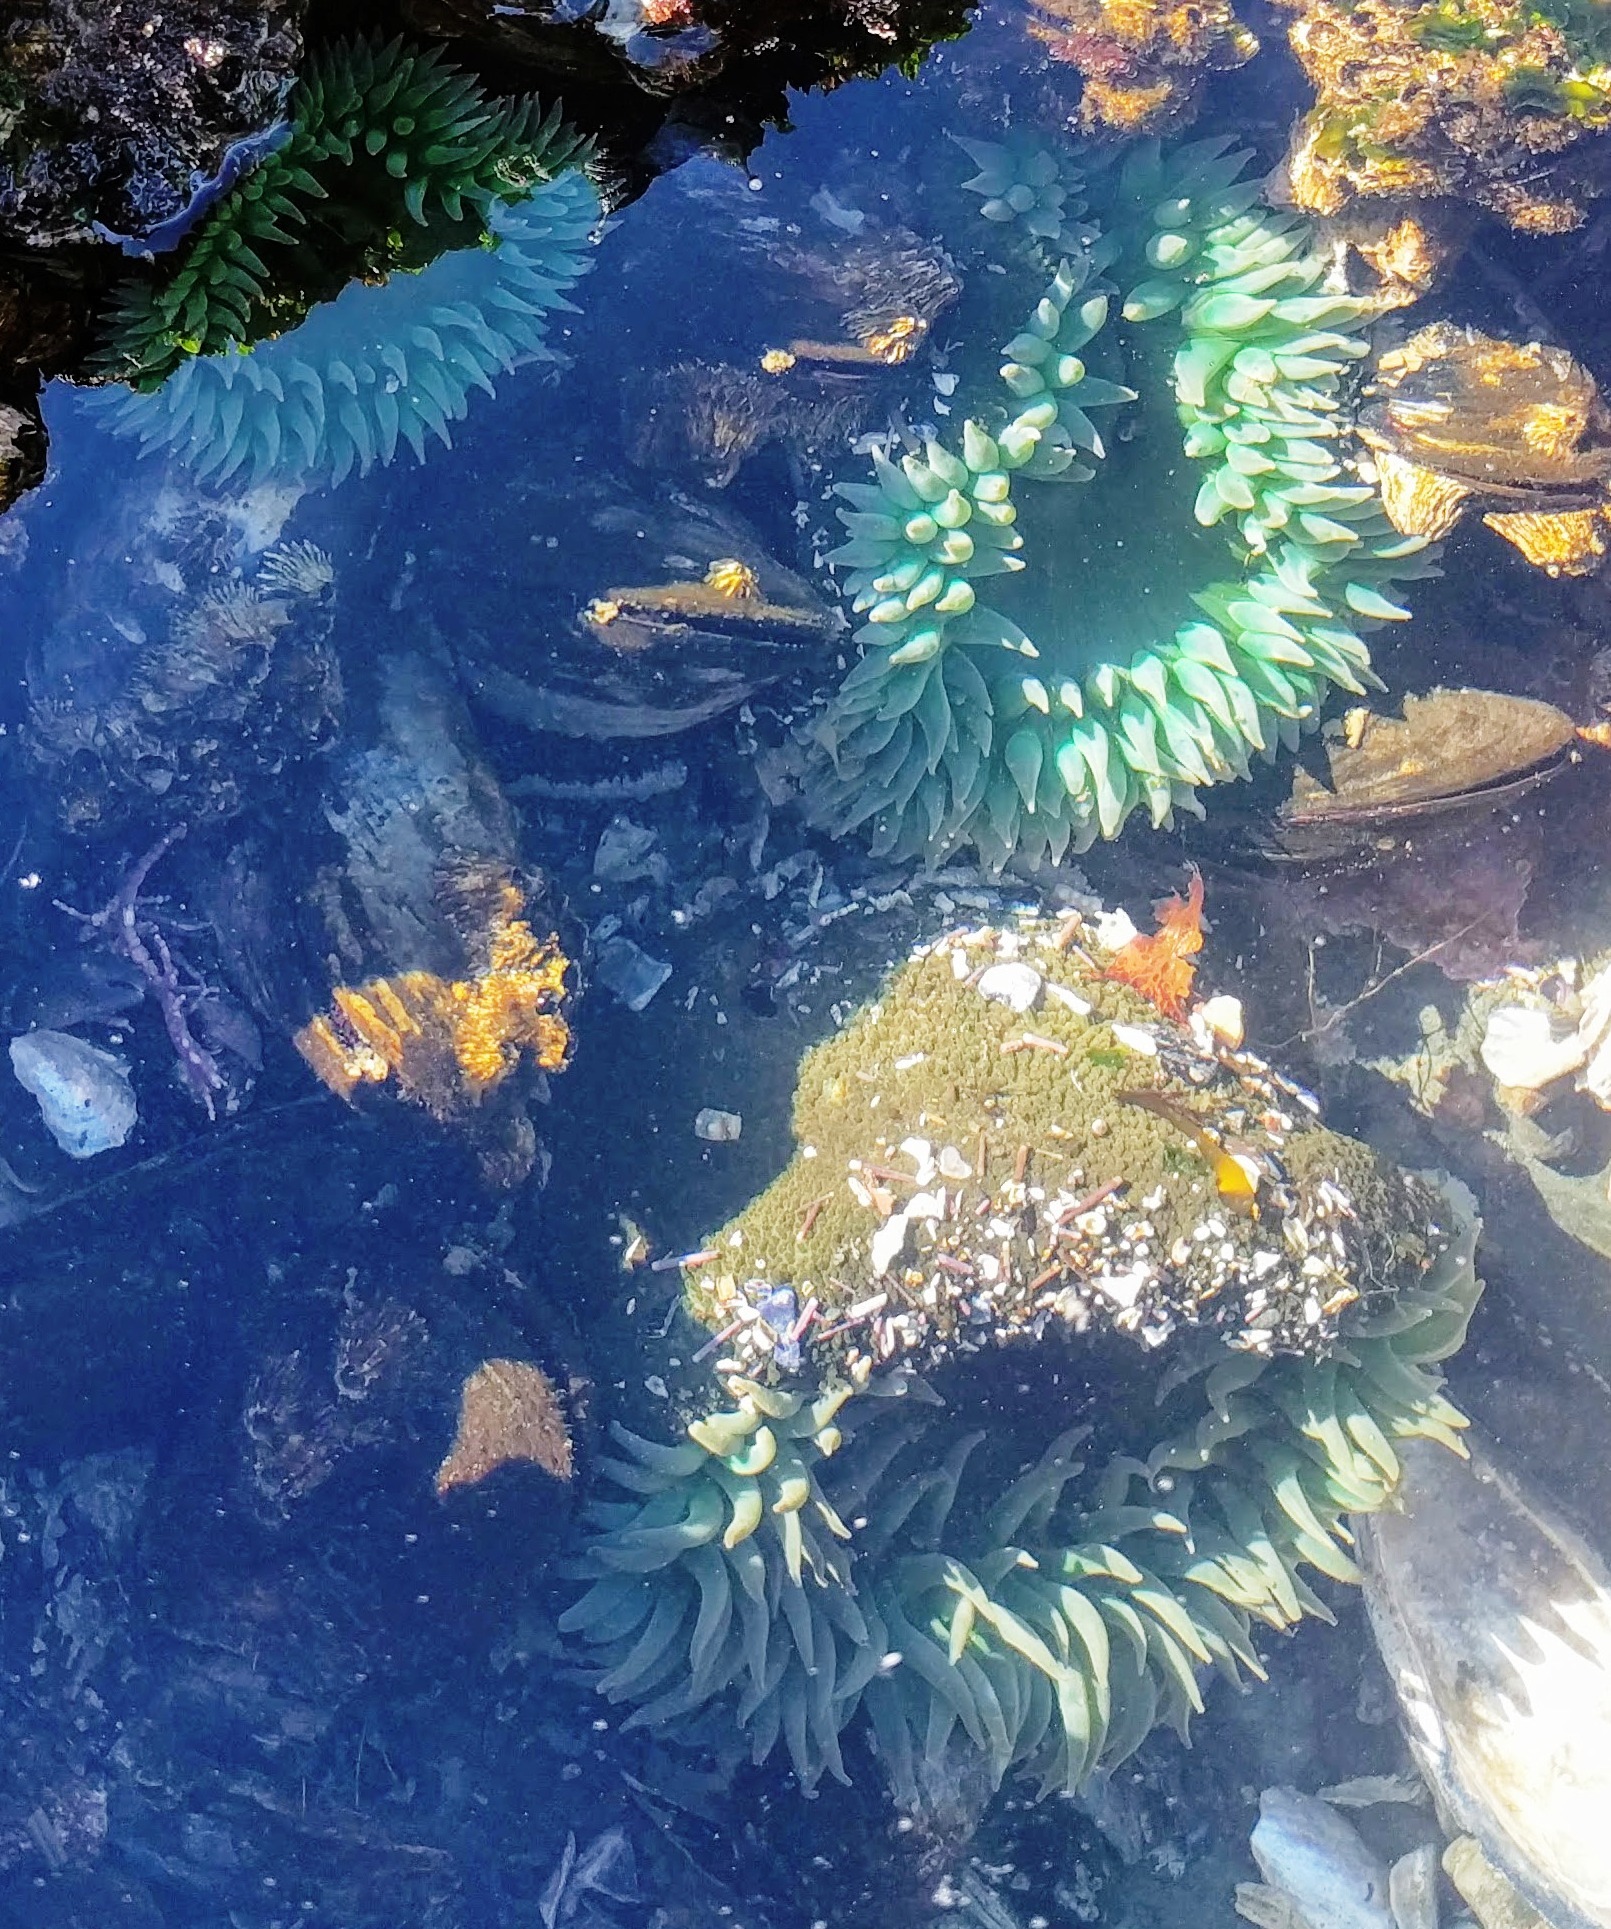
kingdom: Animalia
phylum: Cnidaria
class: Anthozoa
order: Actiniaria
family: Actiniidae
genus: Anthopleura
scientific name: Anthopleura xanthogrammica
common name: Giant green anemone
